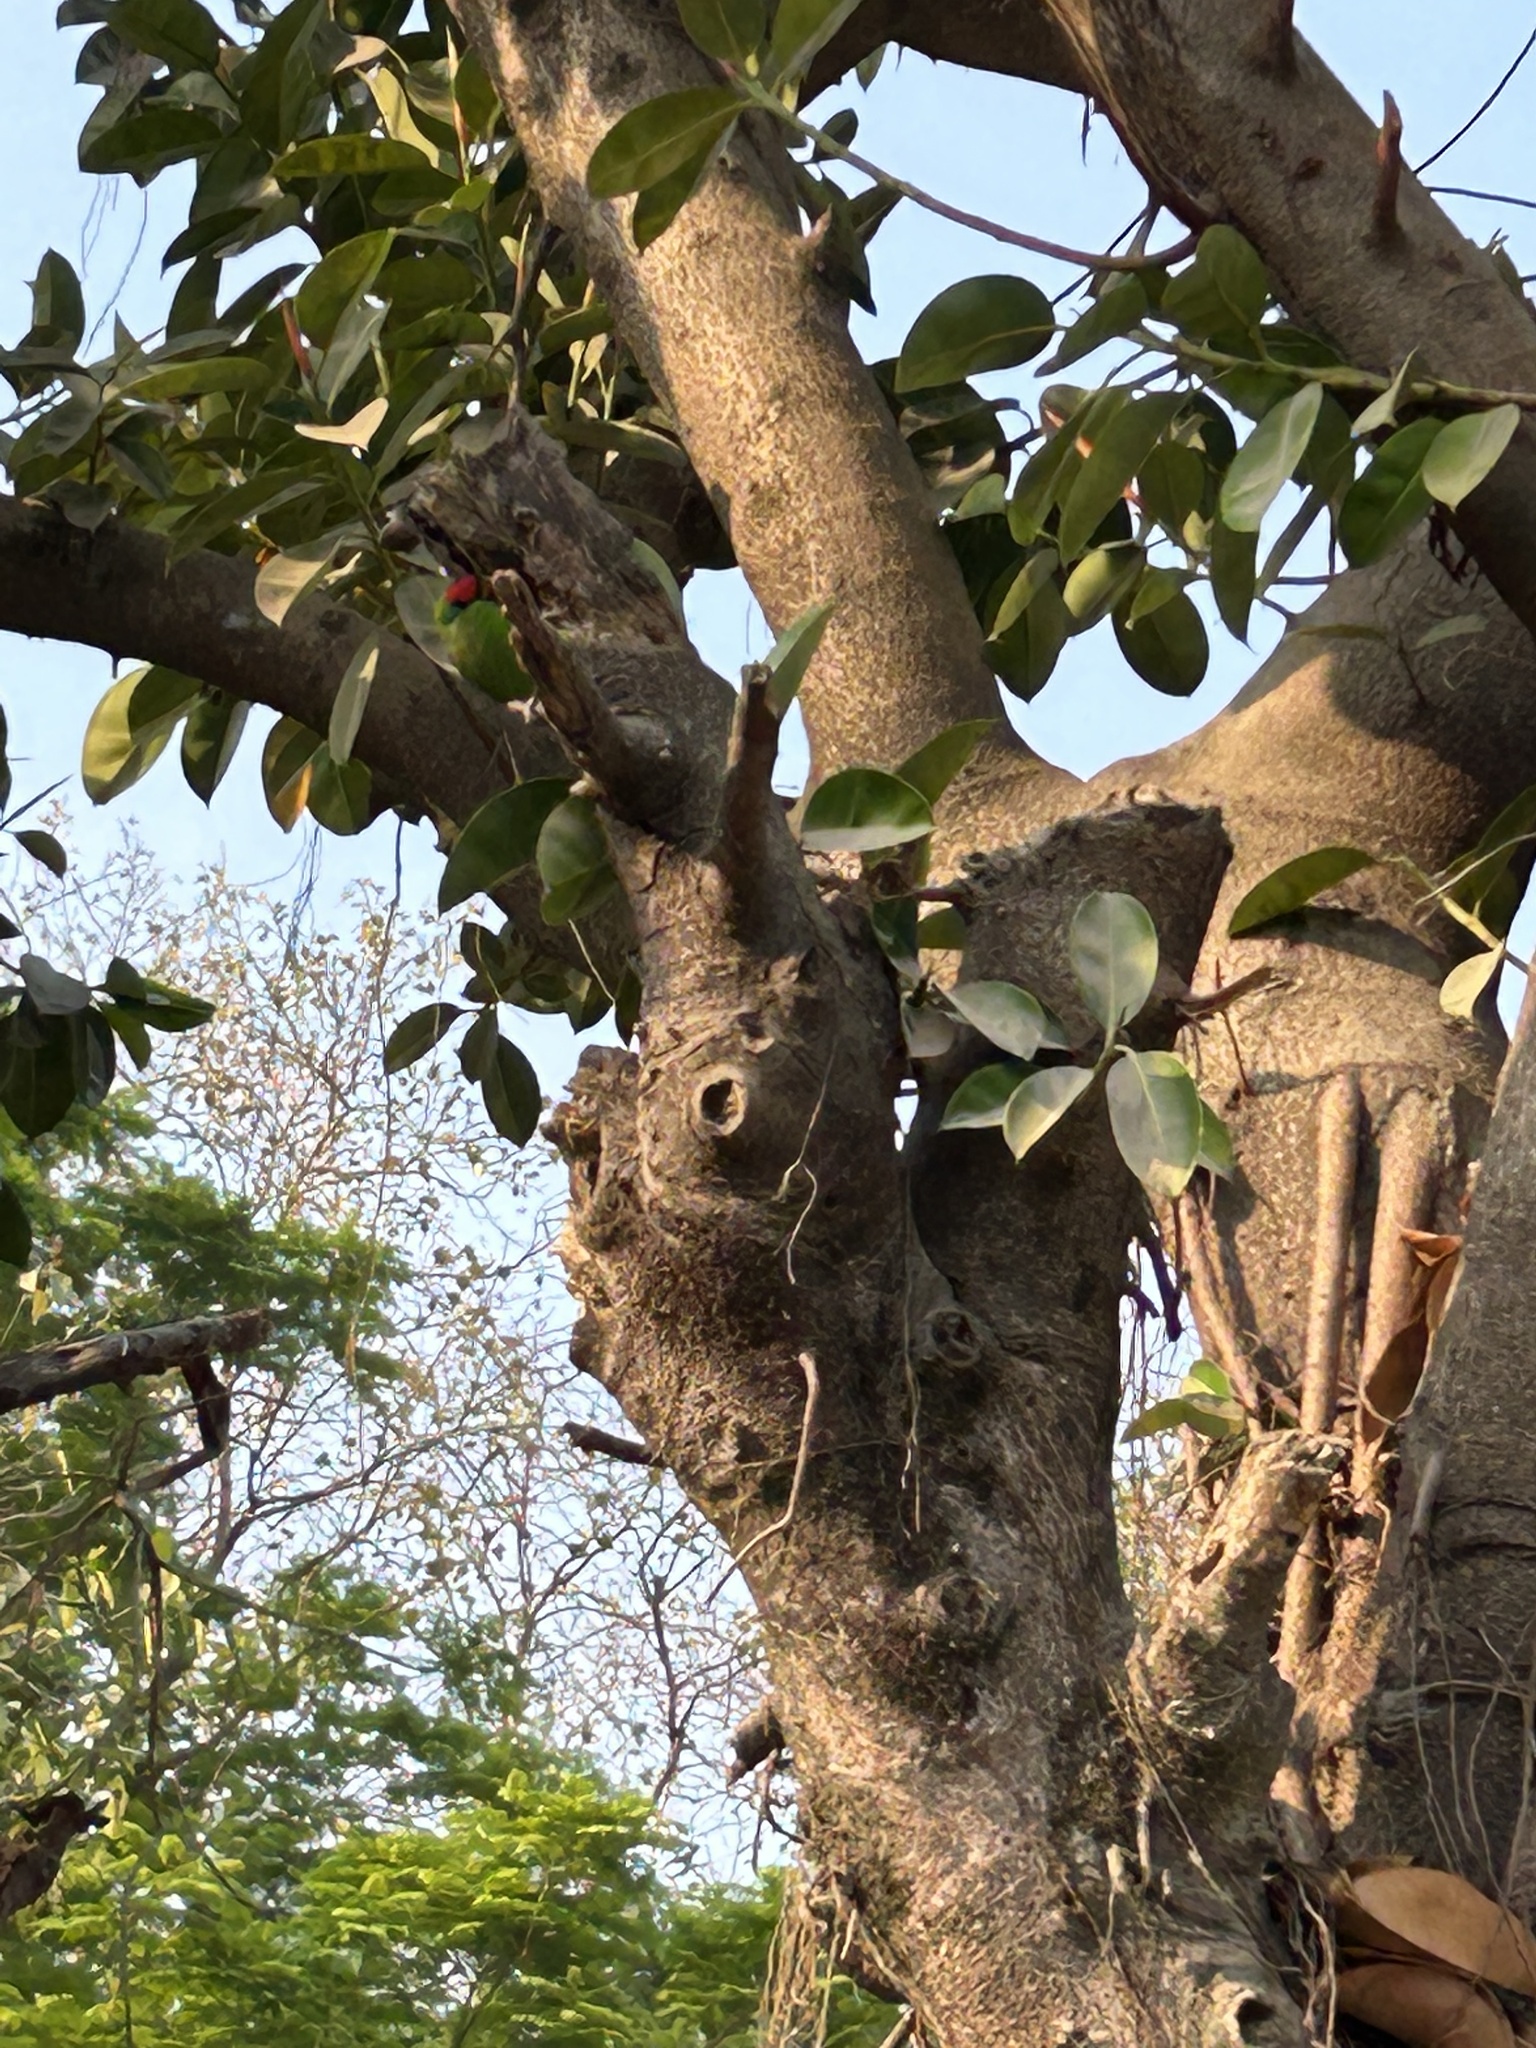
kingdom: Plantae
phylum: Tracheophyta
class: Magnoliopsida
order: Rosales
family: Moraceae
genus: Ficus
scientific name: Ficus elastica
